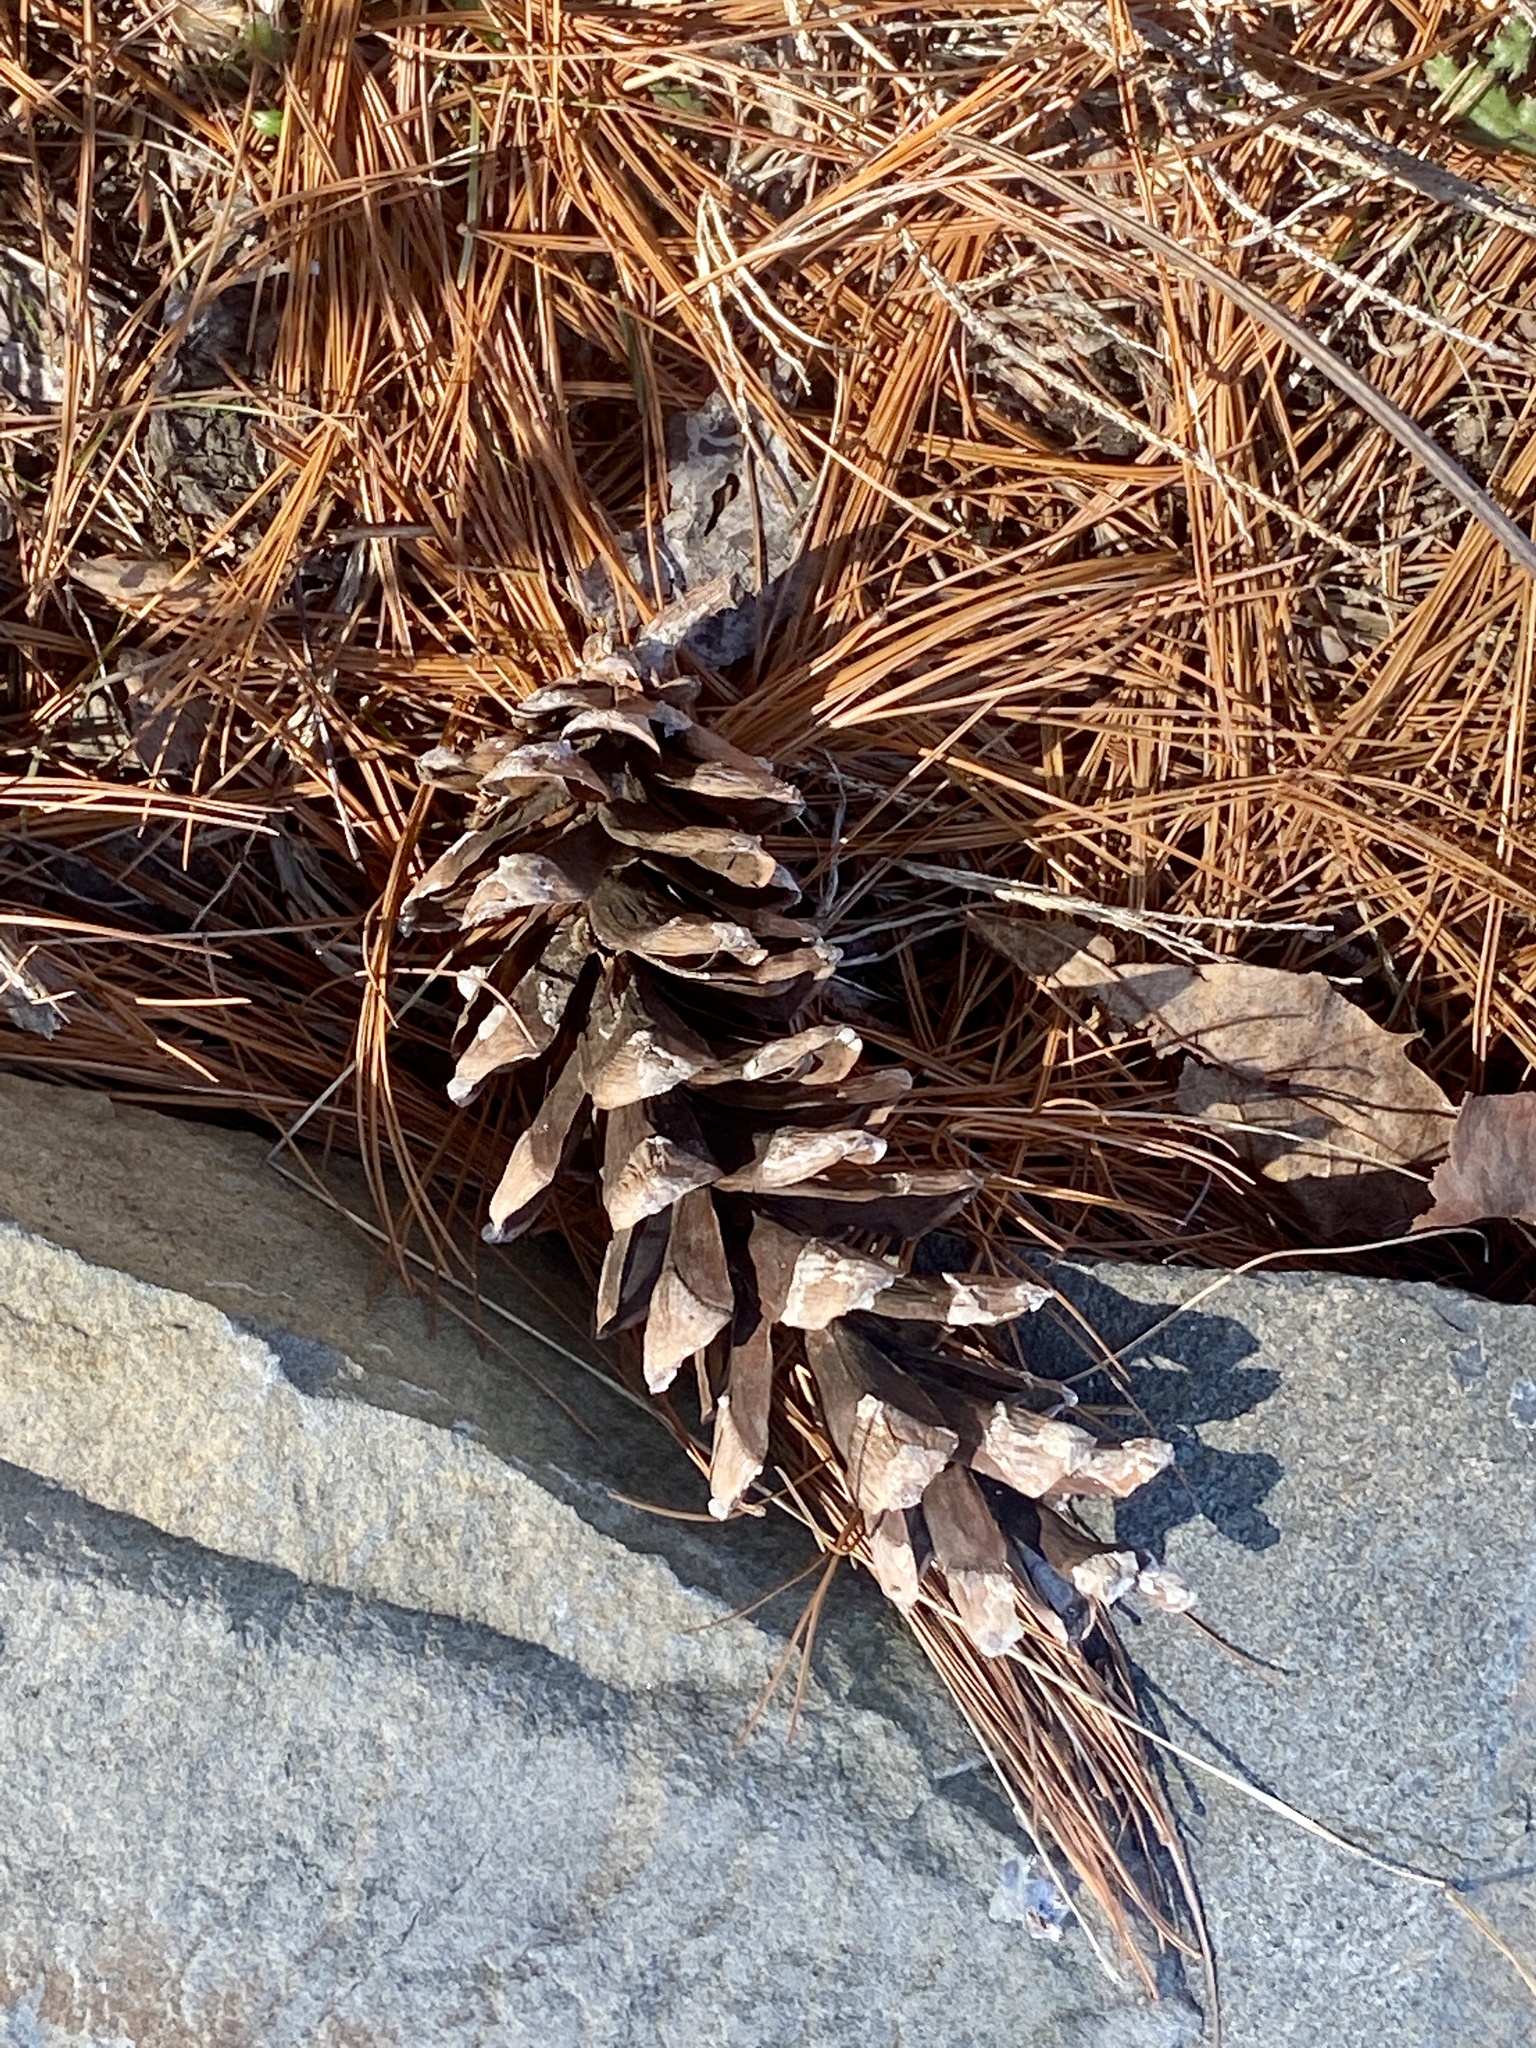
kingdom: Plantae
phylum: Tracheophyta
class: Pinopsida
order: Pinales
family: Pinaceae
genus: Pinus
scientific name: Pinus strobus
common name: Weymouth pine
